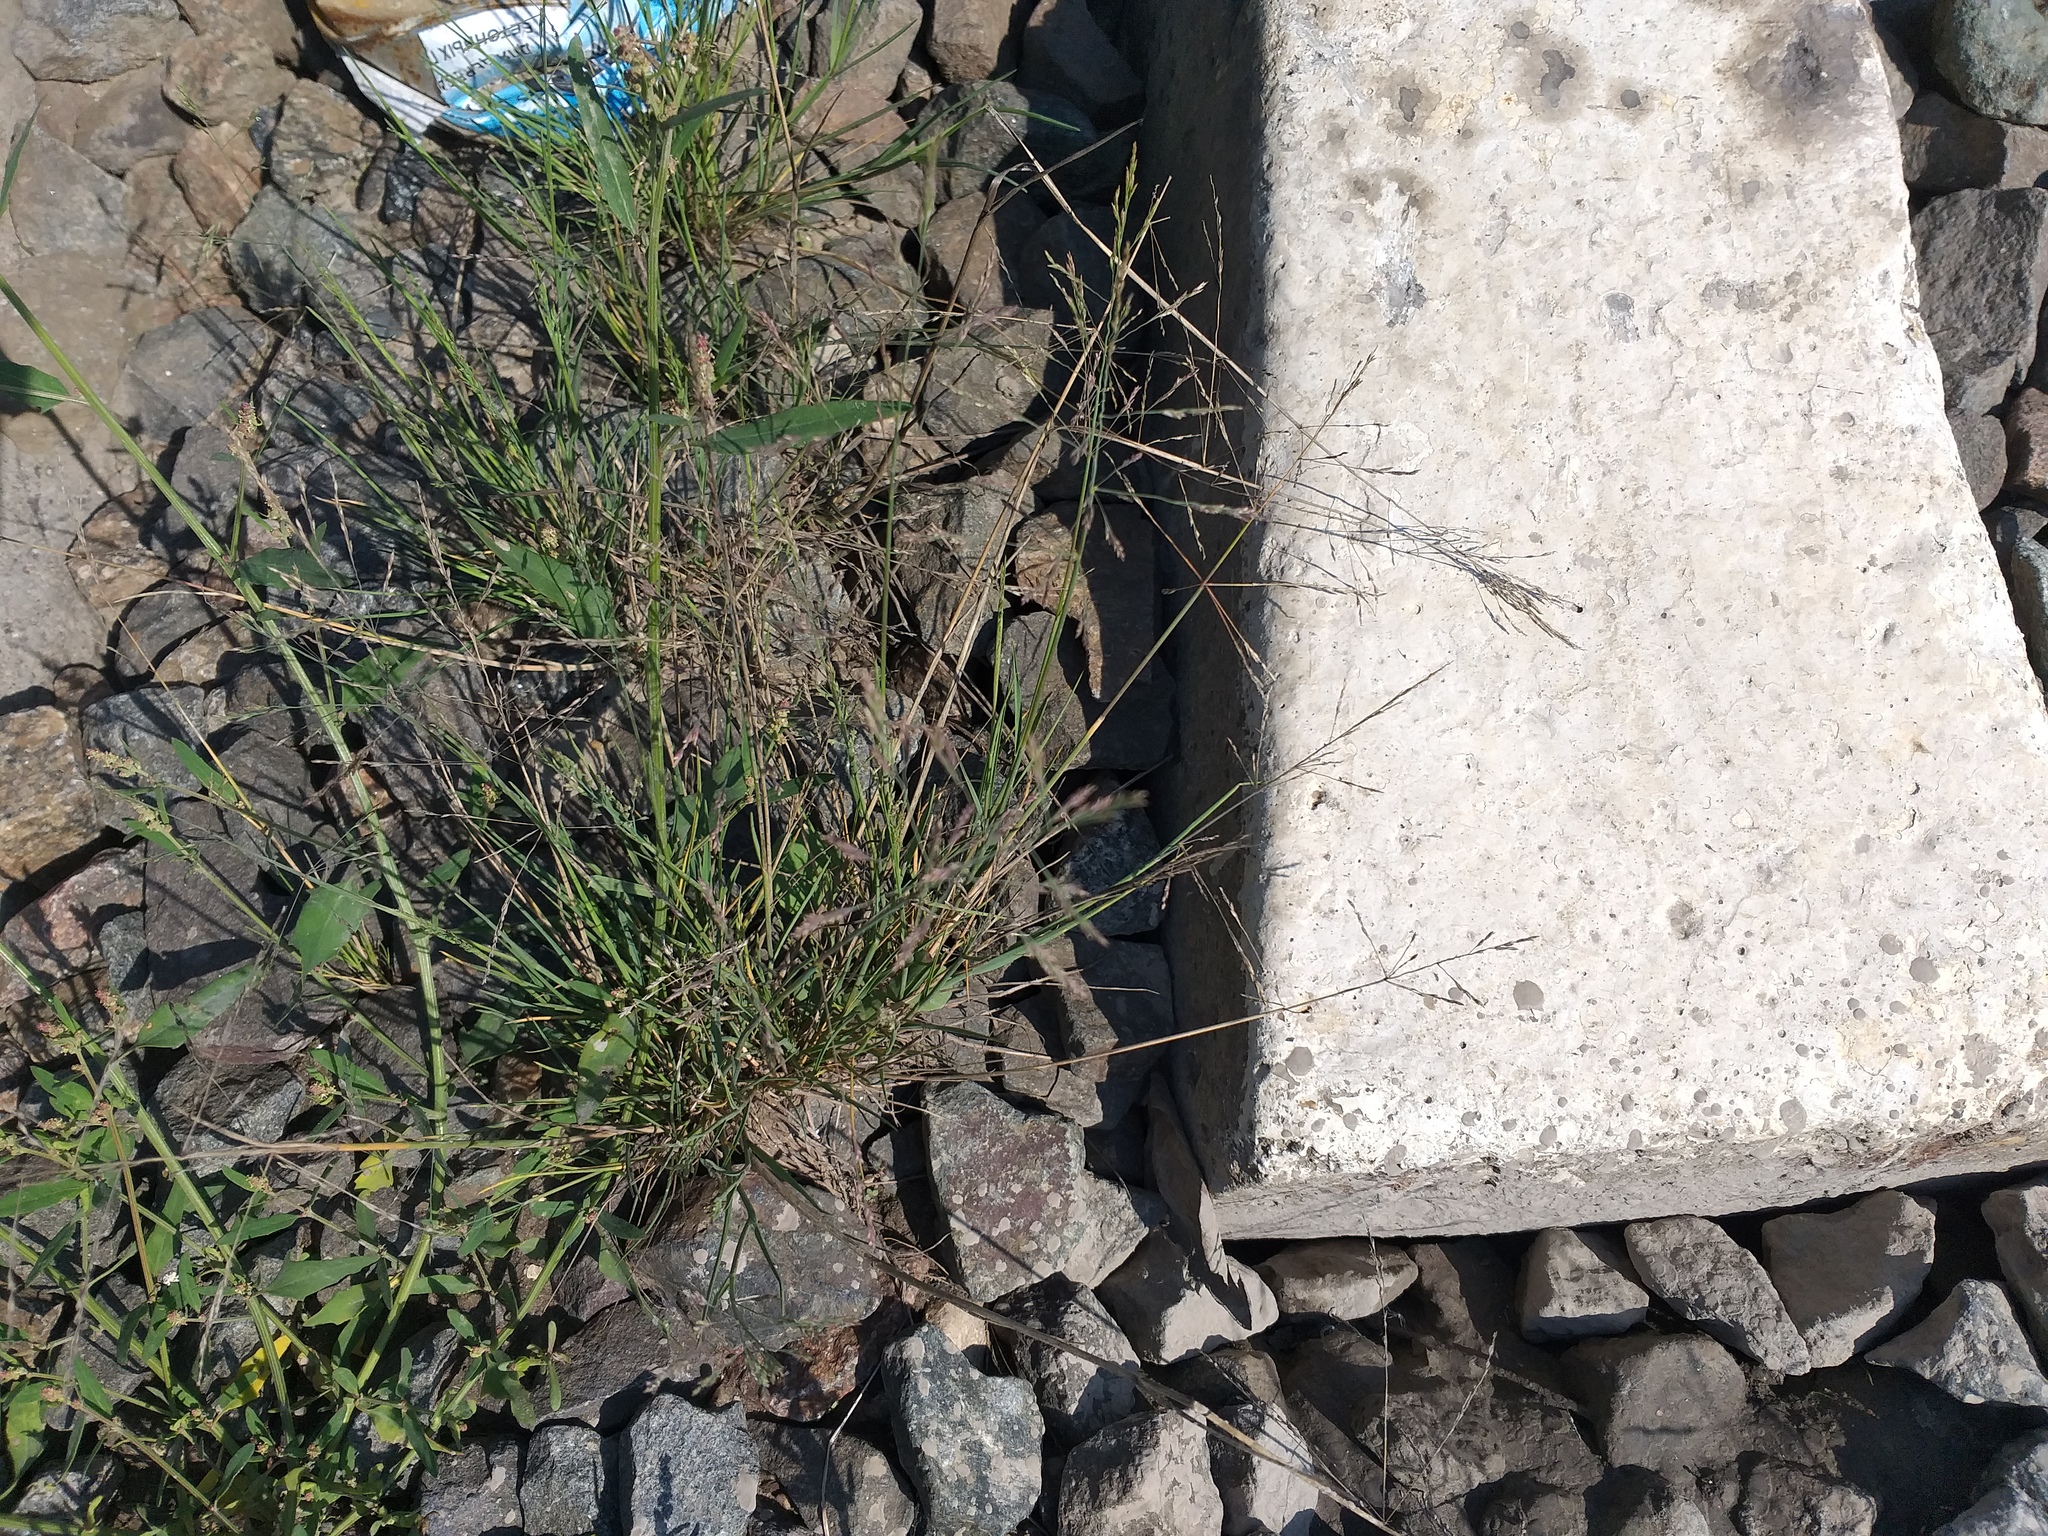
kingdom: Plantae
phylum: Tracheophyta
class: Liliopsida
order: Poales
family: Poaceae
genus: Puccinellia
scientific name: Puccinellia distans
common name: Weeping alkaligrass
